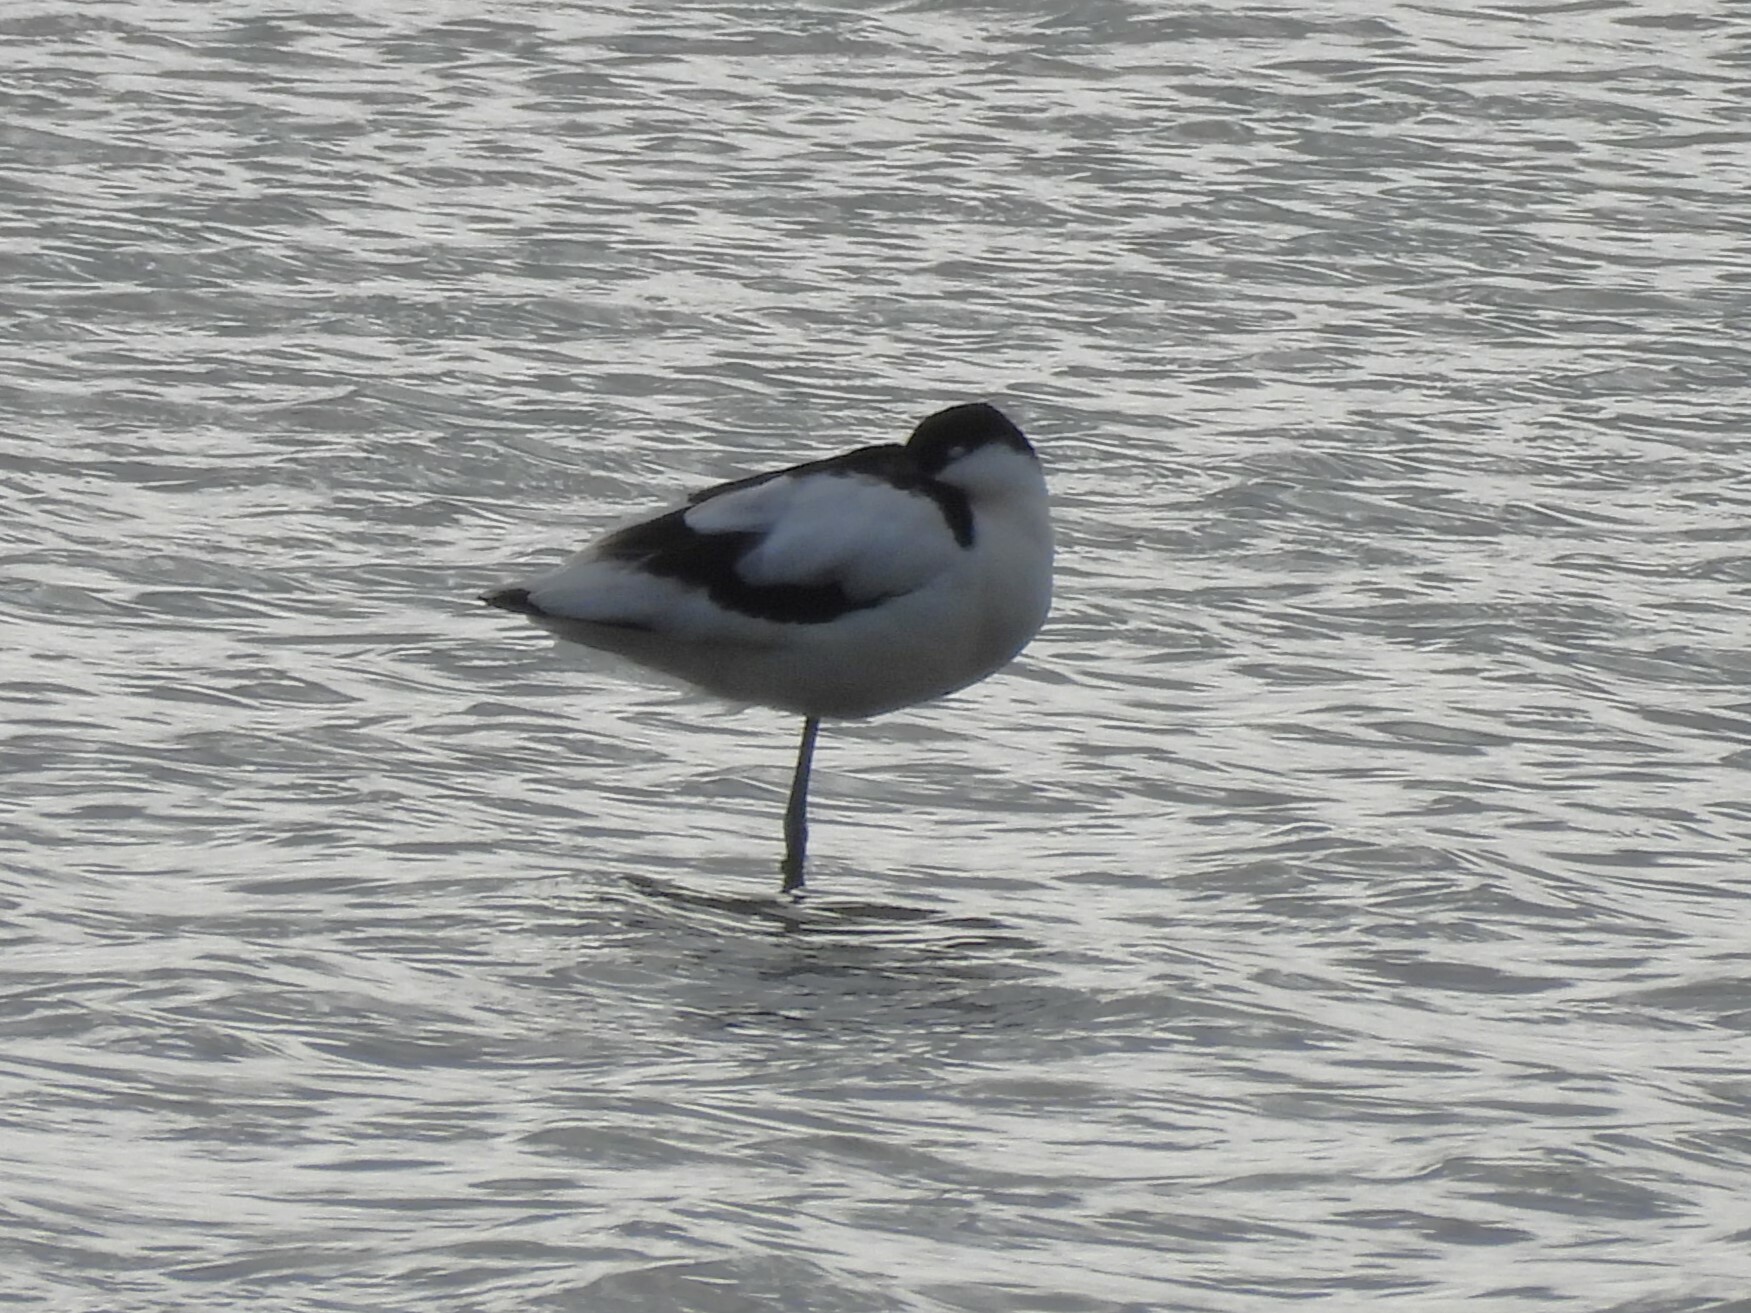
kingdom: Animalia
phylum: Chordata
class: Aves
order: Charadriiformes
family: Recurvirostridae
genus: Recurvirostra
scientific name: Recurvirostra avosetta
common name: Pied avocet
